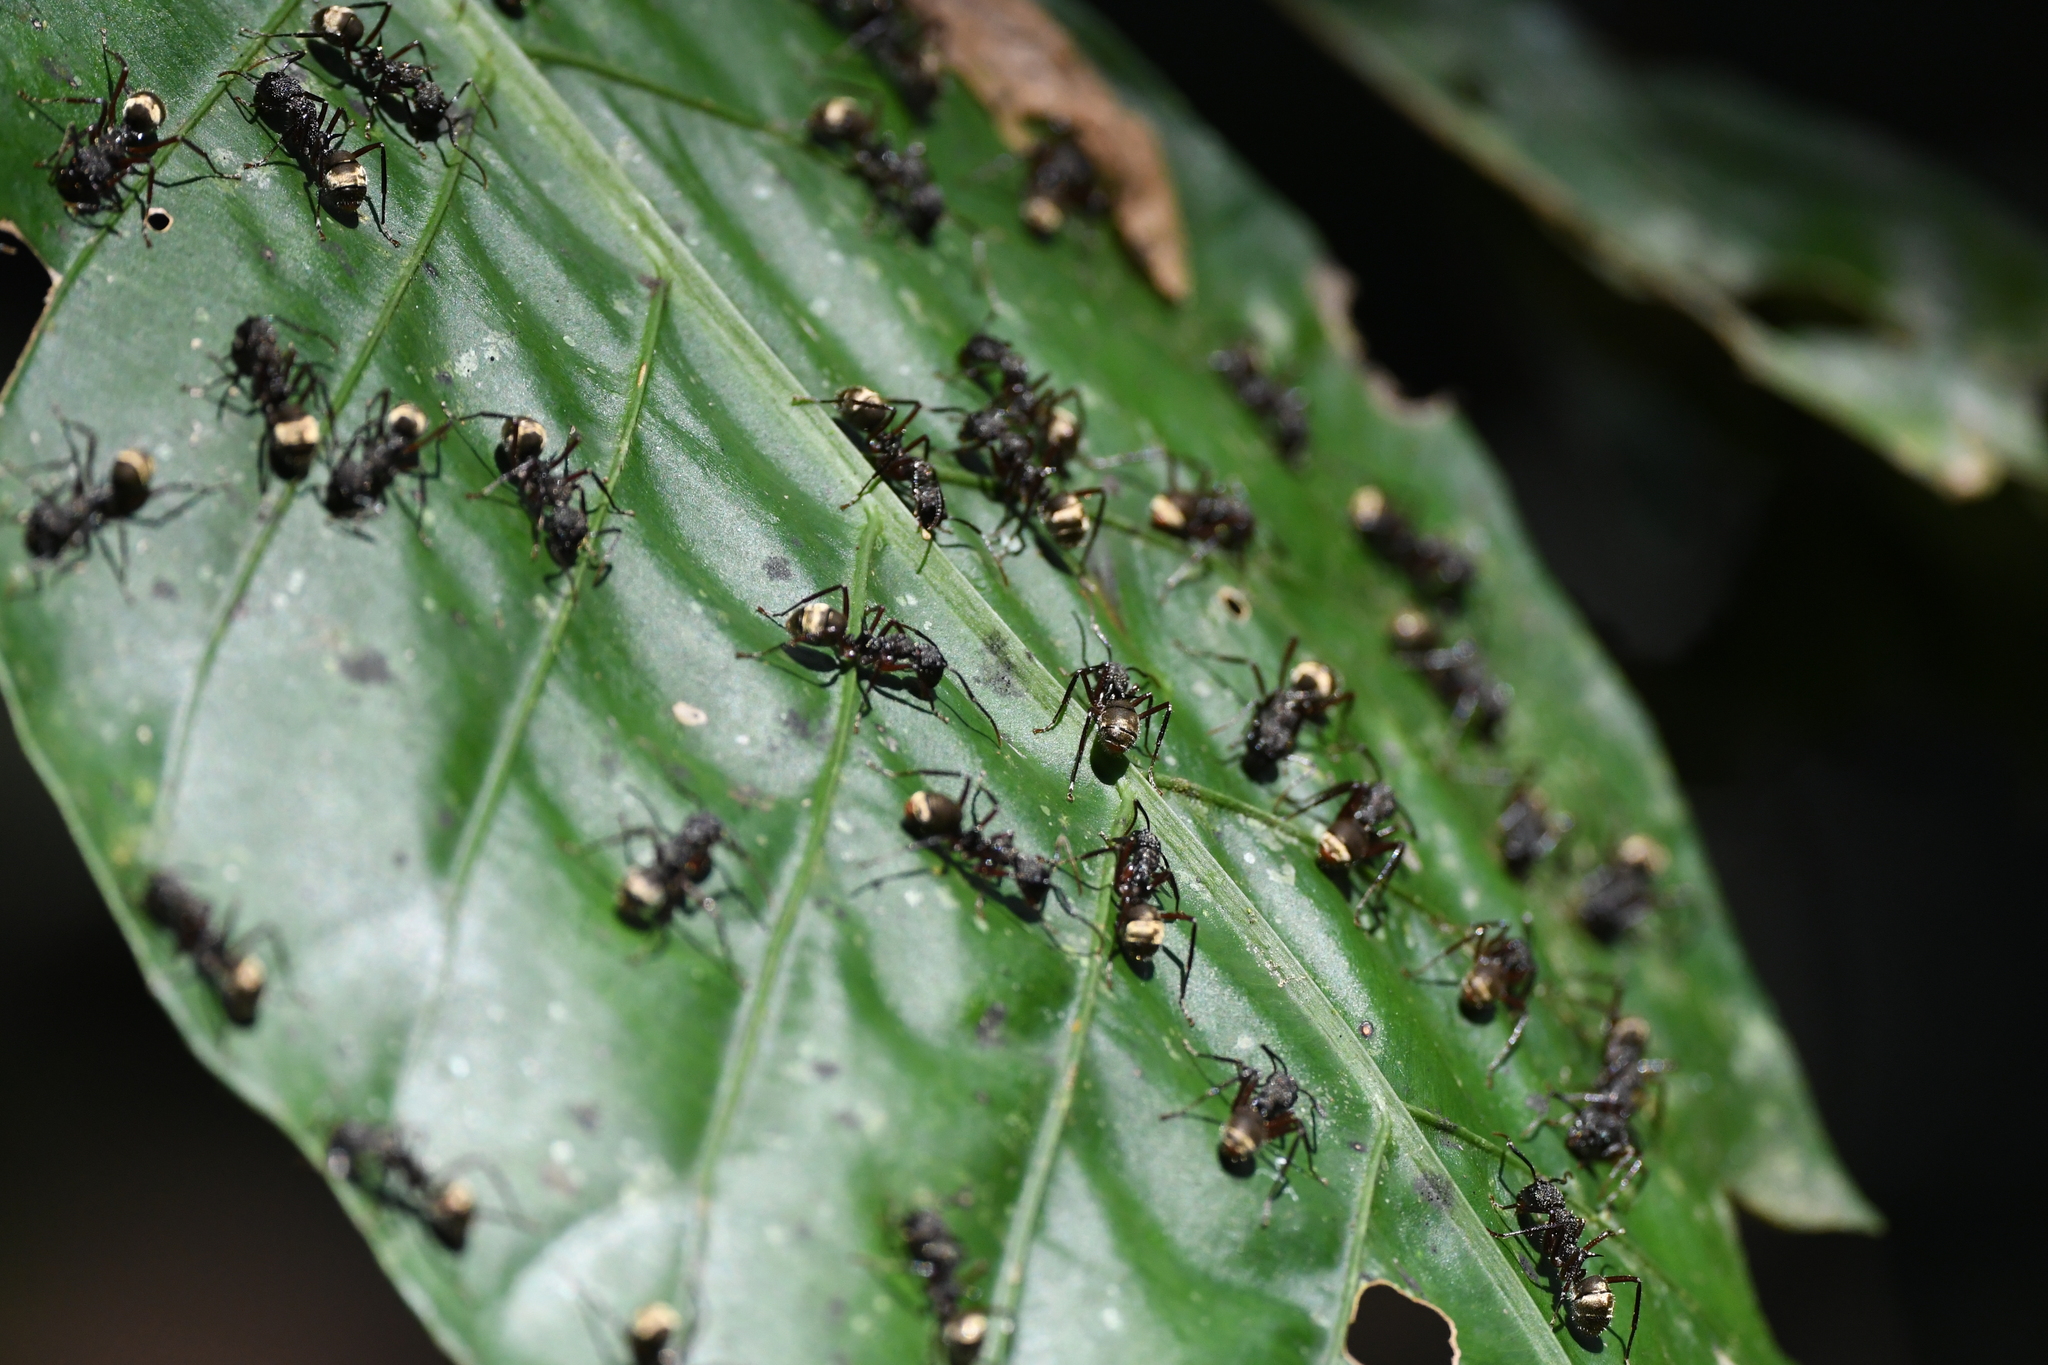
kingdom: Animalia
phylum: Arthropoda
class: Insecta
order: Hymenoptera
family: Formicidae
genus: Dolichoderus
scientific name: Dolichoderus decollatus
